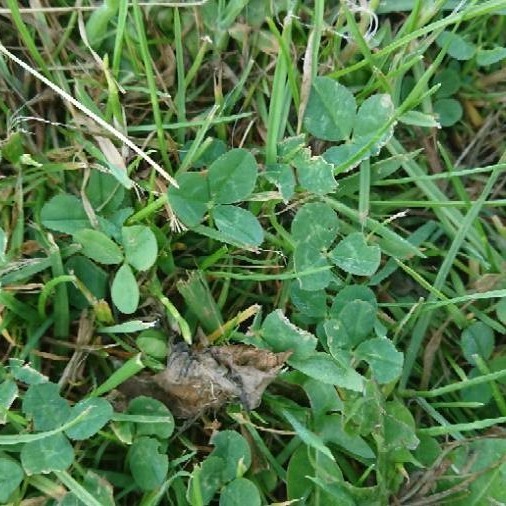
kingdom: Plantae
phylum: Tracheophyta
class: Magnoliopsida
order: Fabales
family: Fabaceae
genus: Trifolium
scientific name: Trifolium repens
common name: White clover
